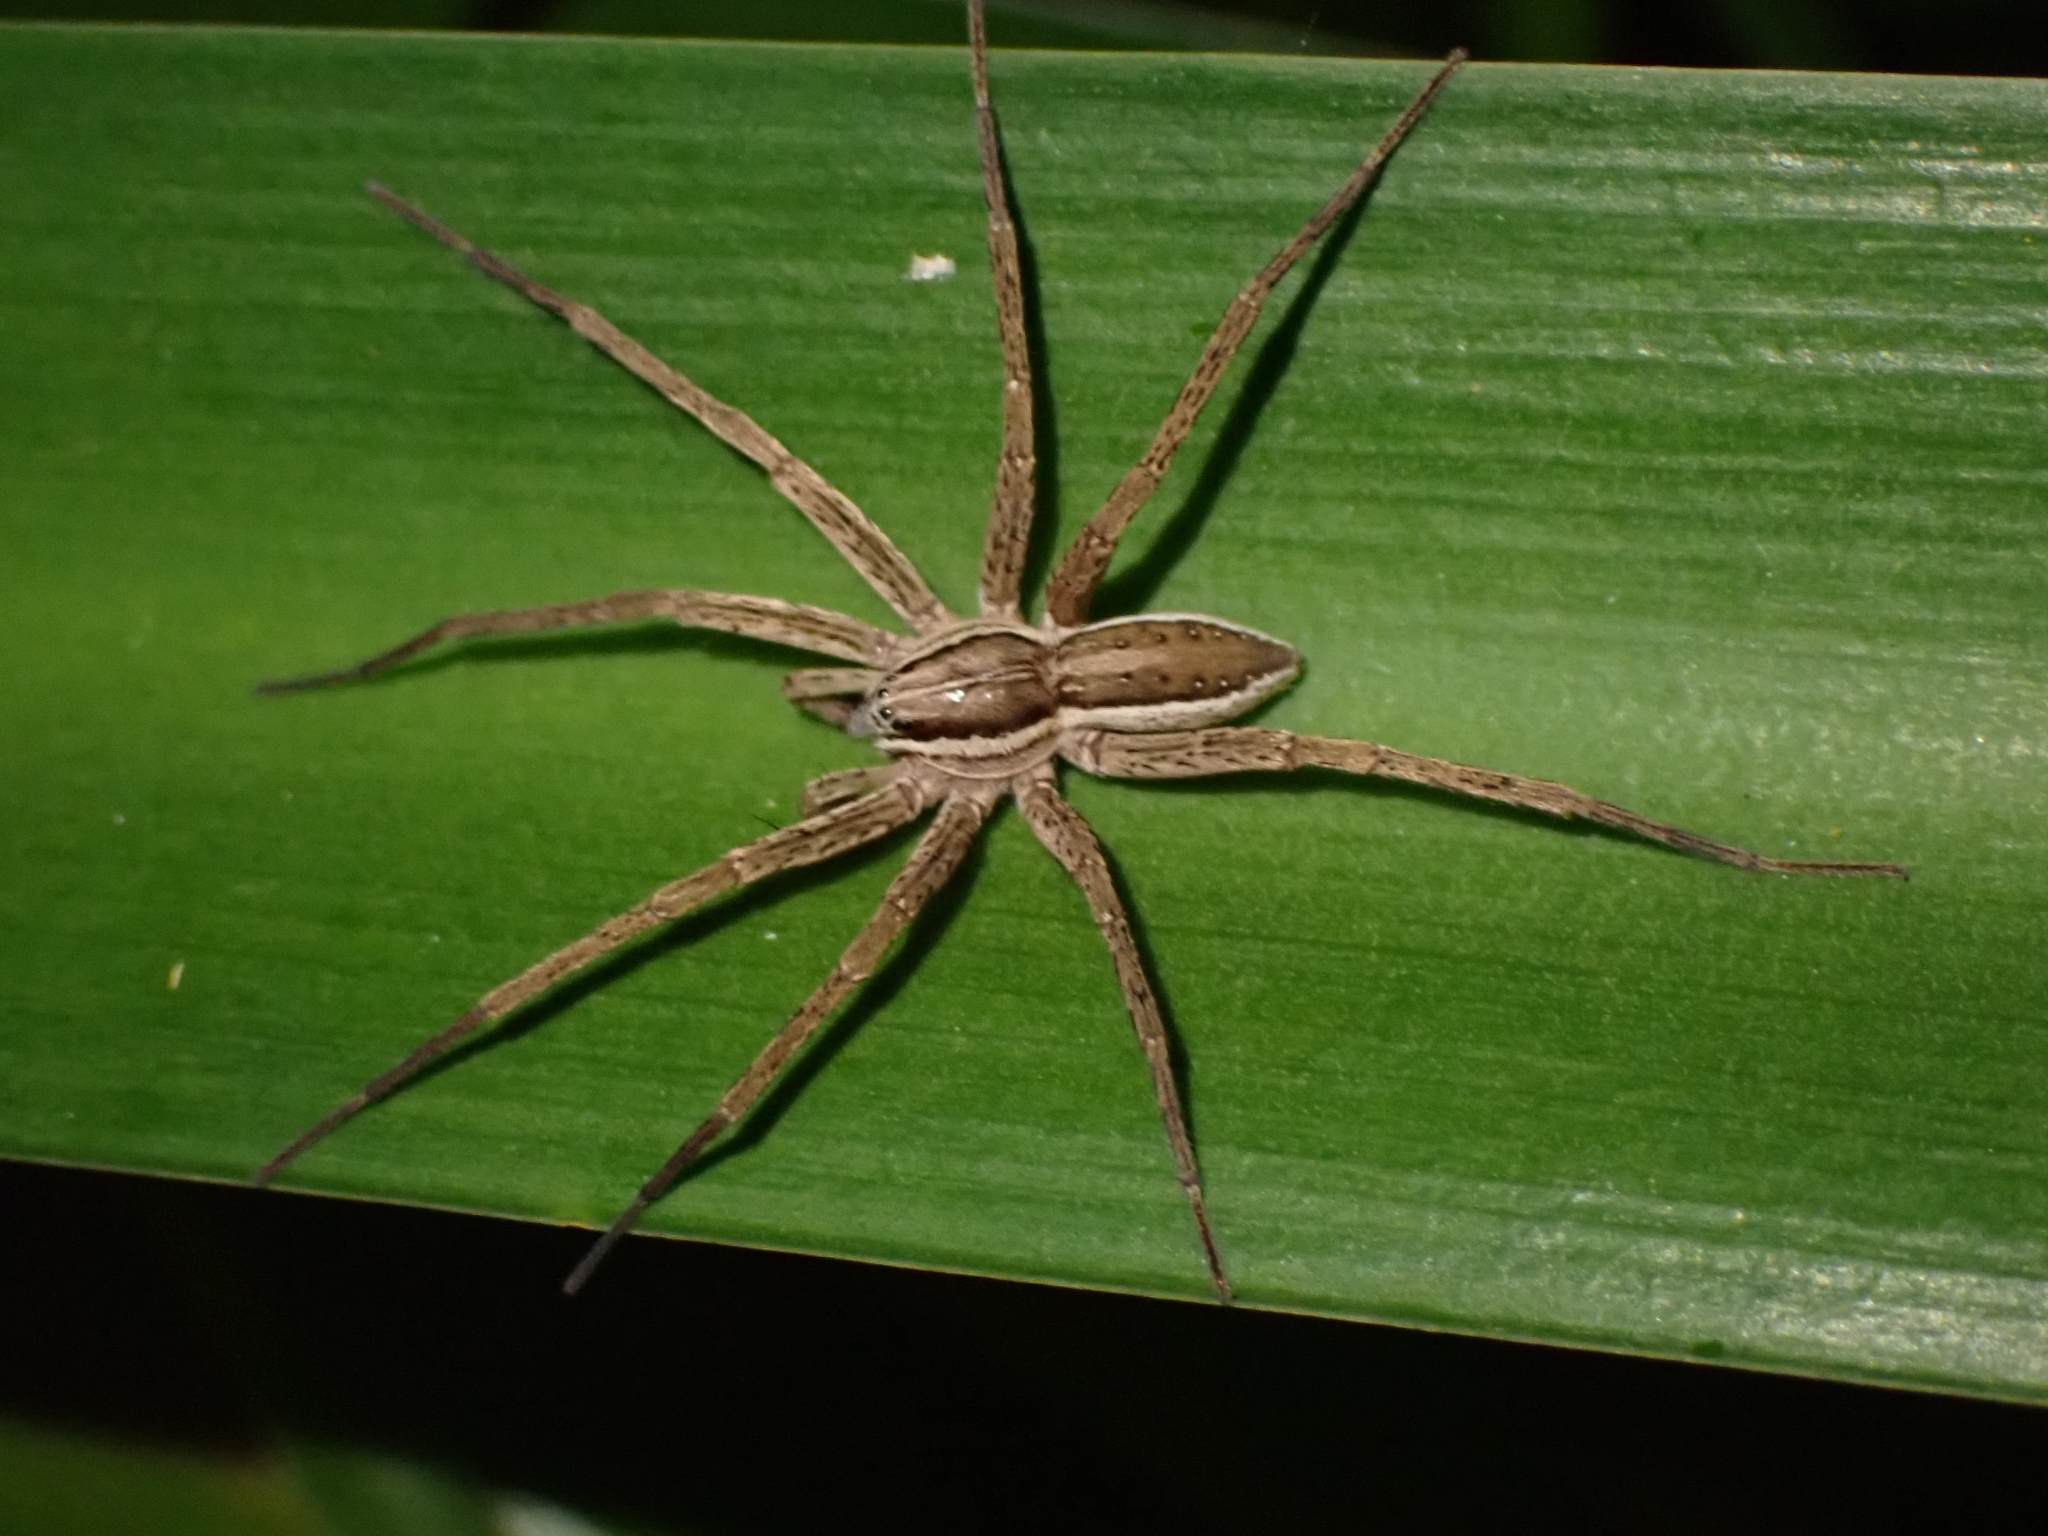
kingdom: Animalia
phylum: Arthropoda
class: Arachnida
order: Araneae
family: Pisauridae
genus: Dolomedes
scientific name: Dolomedes minor
